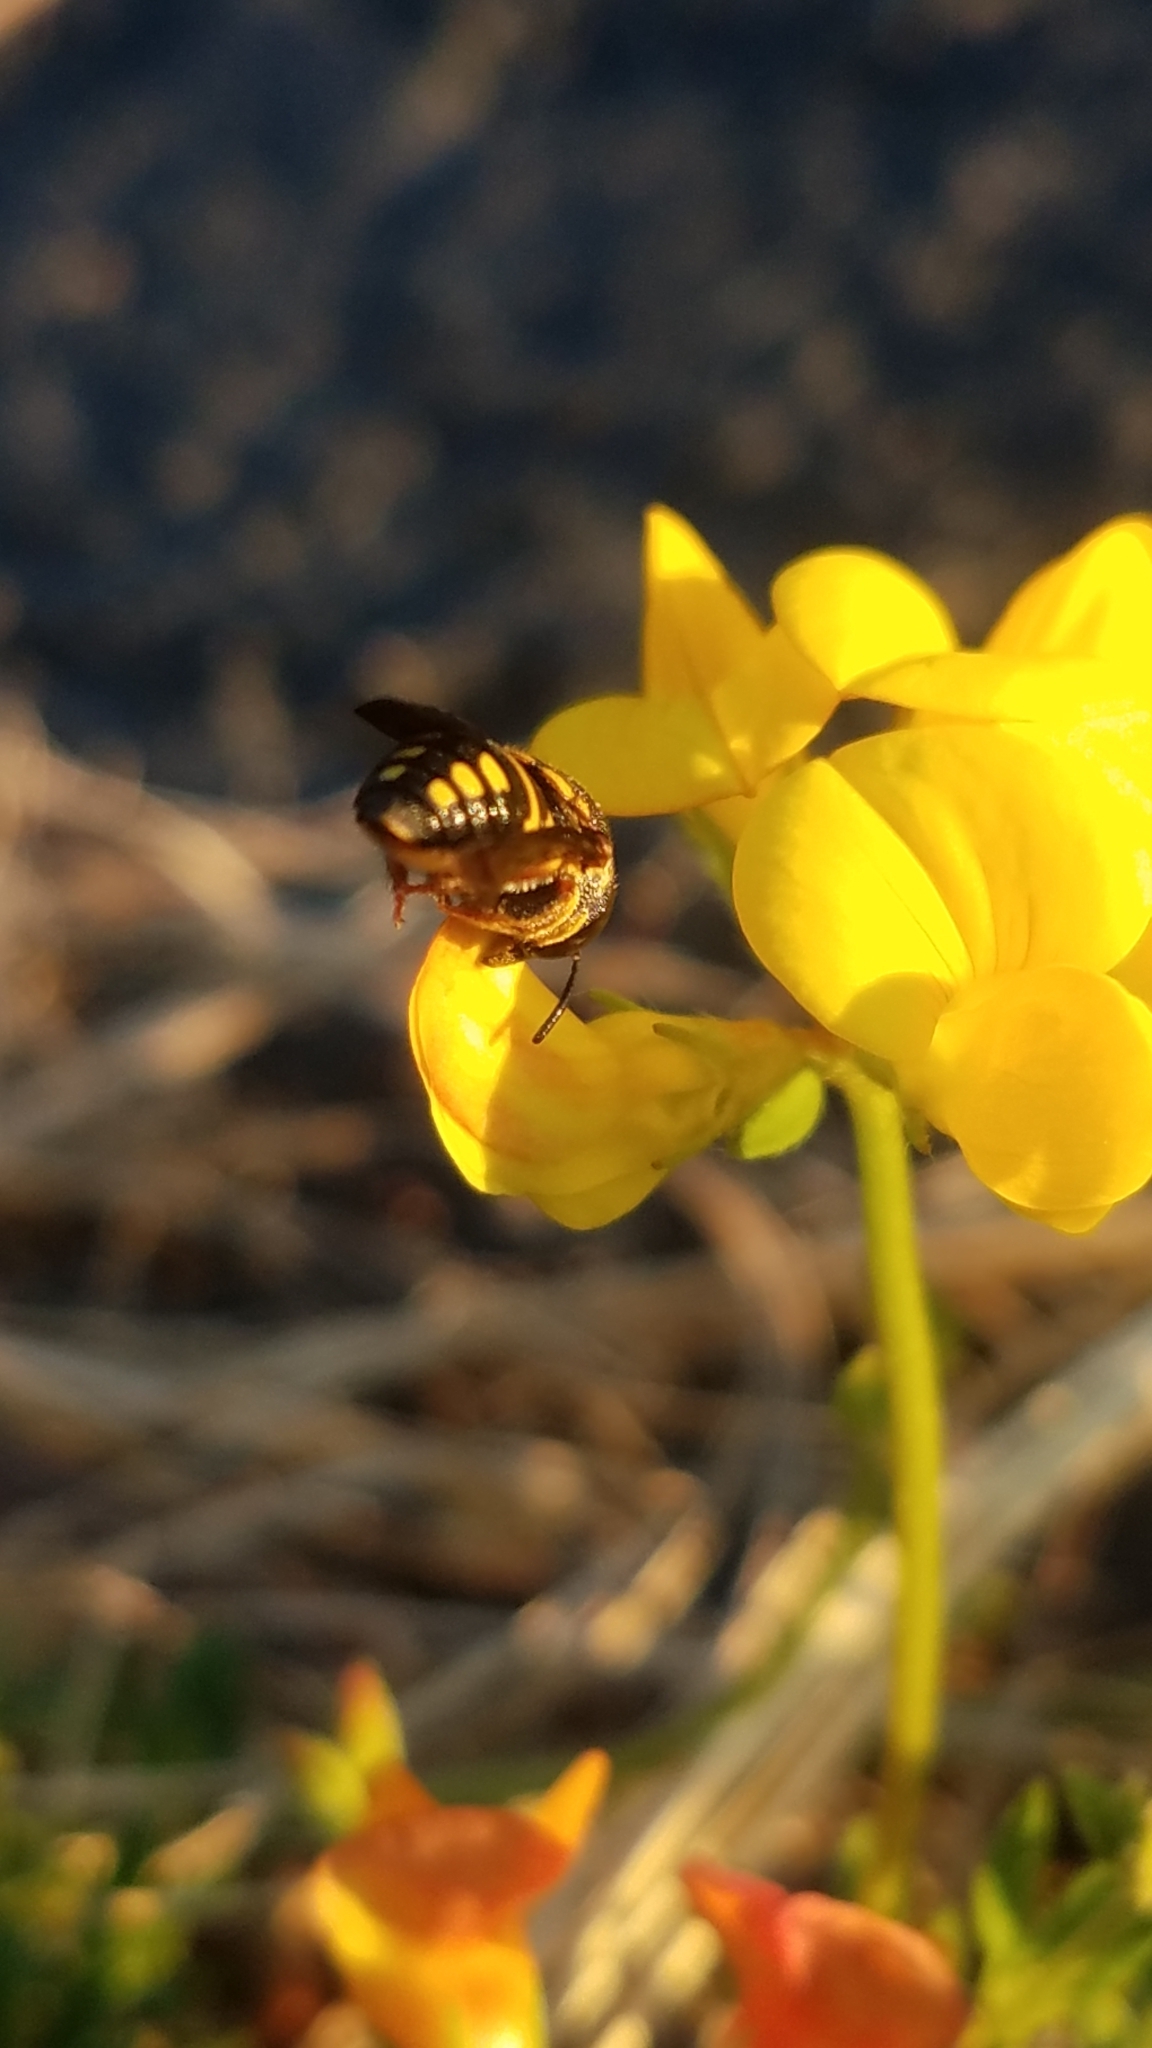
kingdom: Animalia
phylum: Arthropoda
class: Insecta
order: Hymenoptera
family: Megachilidae
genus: Anthidiellum
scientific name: Anthidiellum notatum
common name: Northern rotund-resin bee
